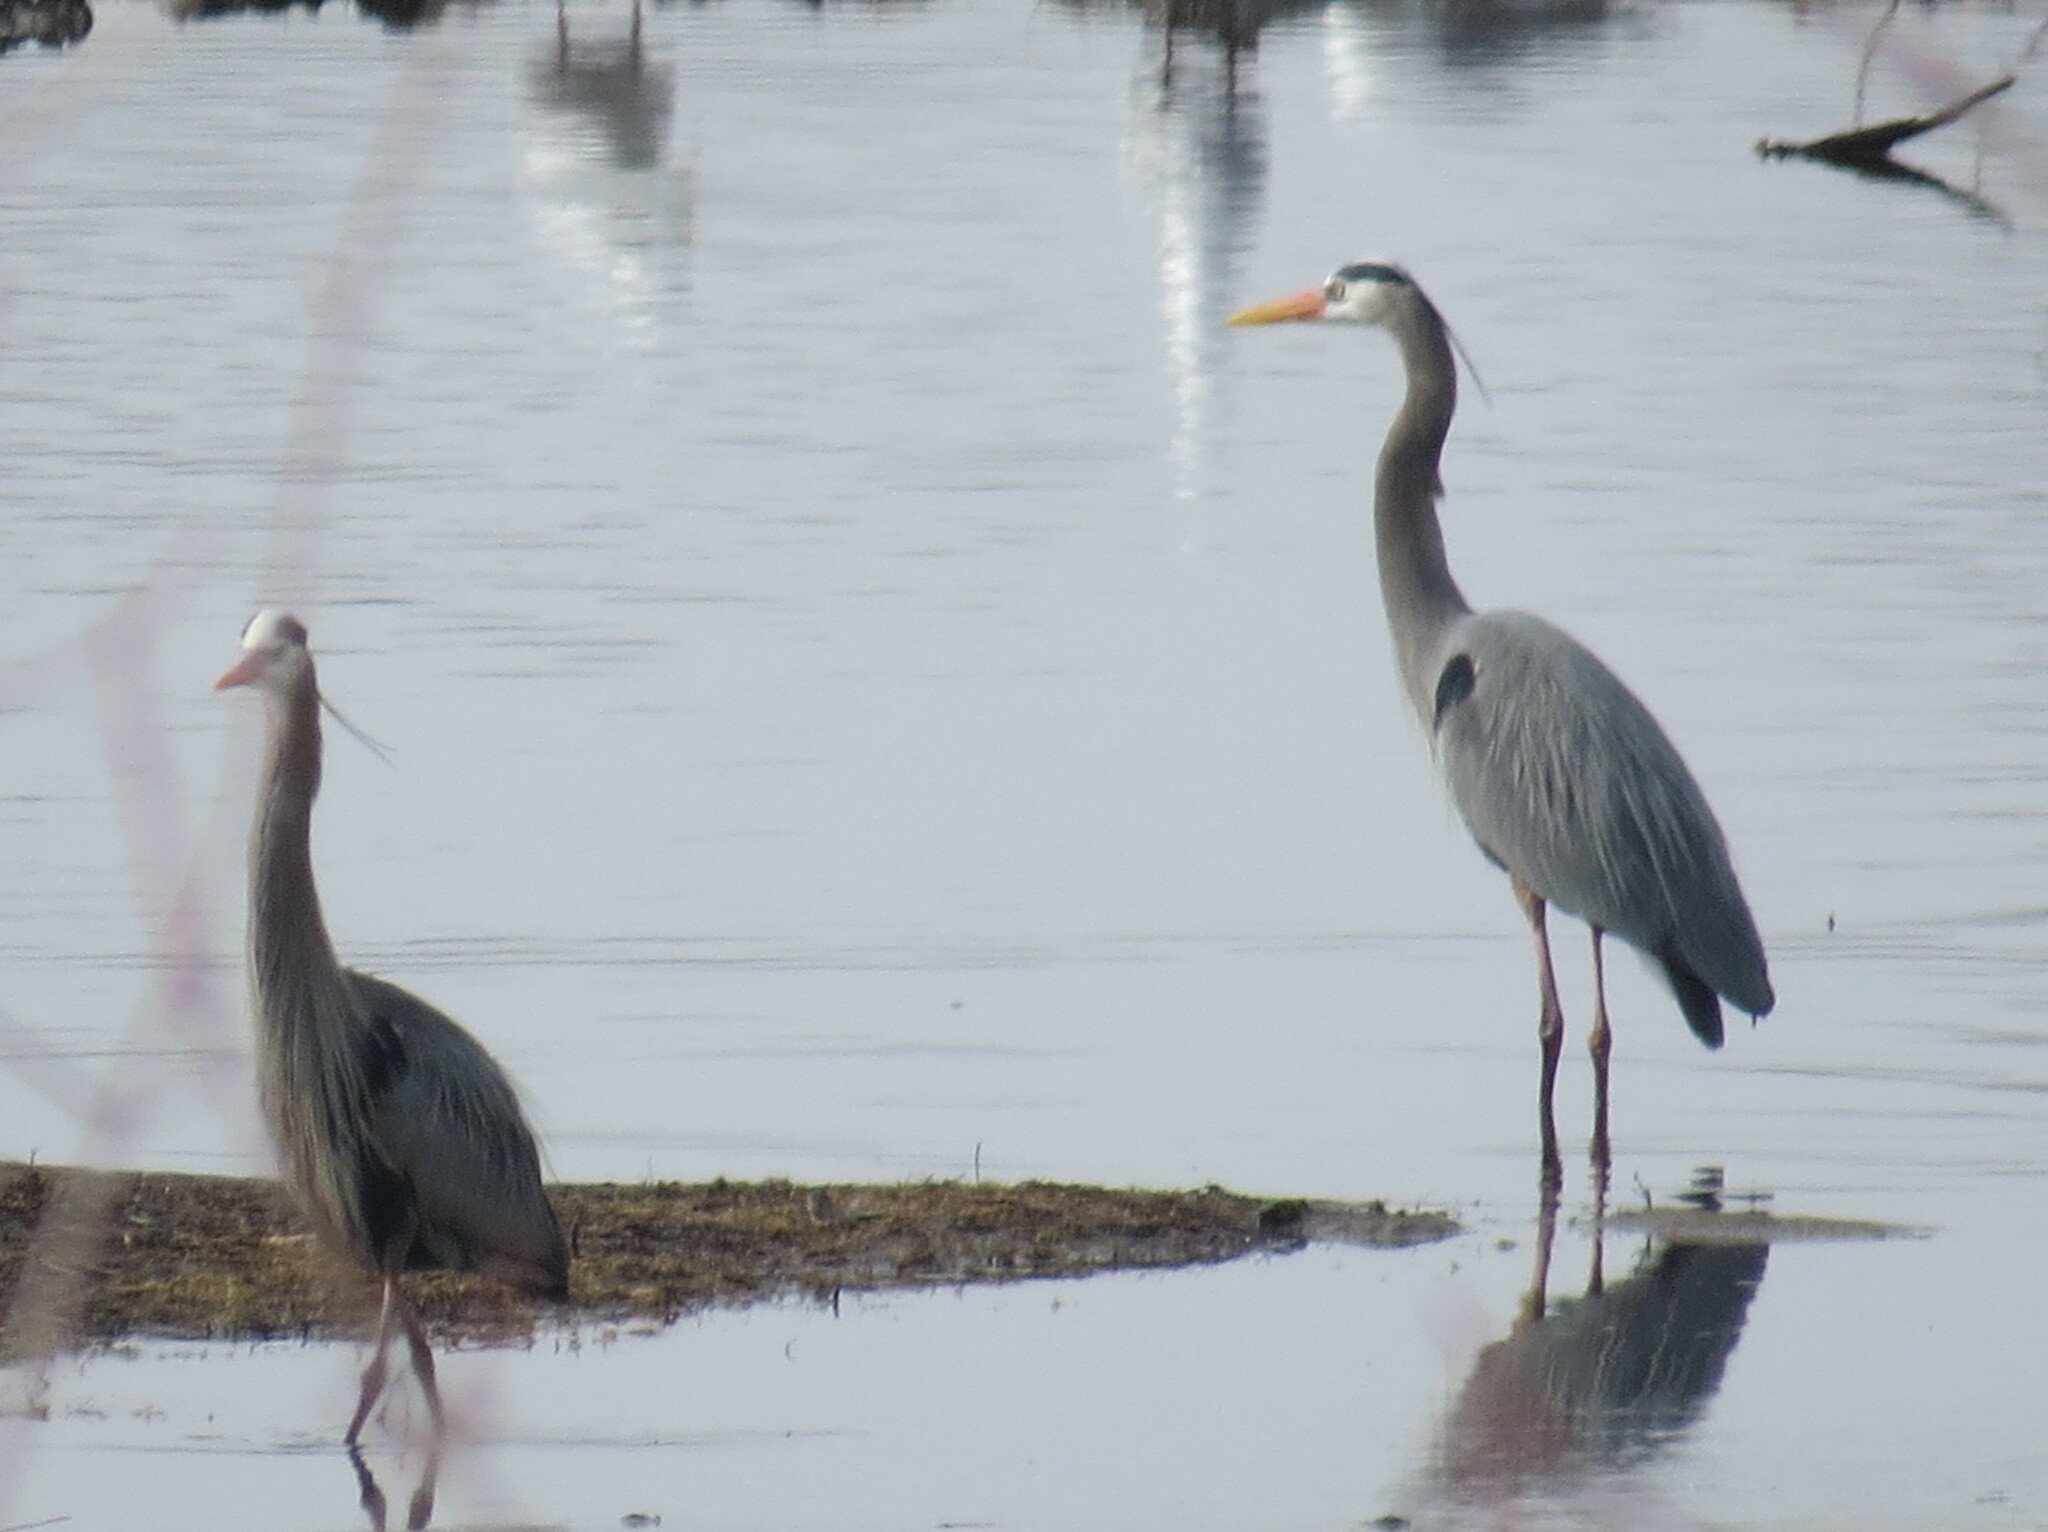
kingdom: Animalia
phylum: Chordata
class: Aves
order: Pelecaniformes
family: Ardeidae
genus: Ardea
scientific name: Ardea herodias
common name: Great blue heron
